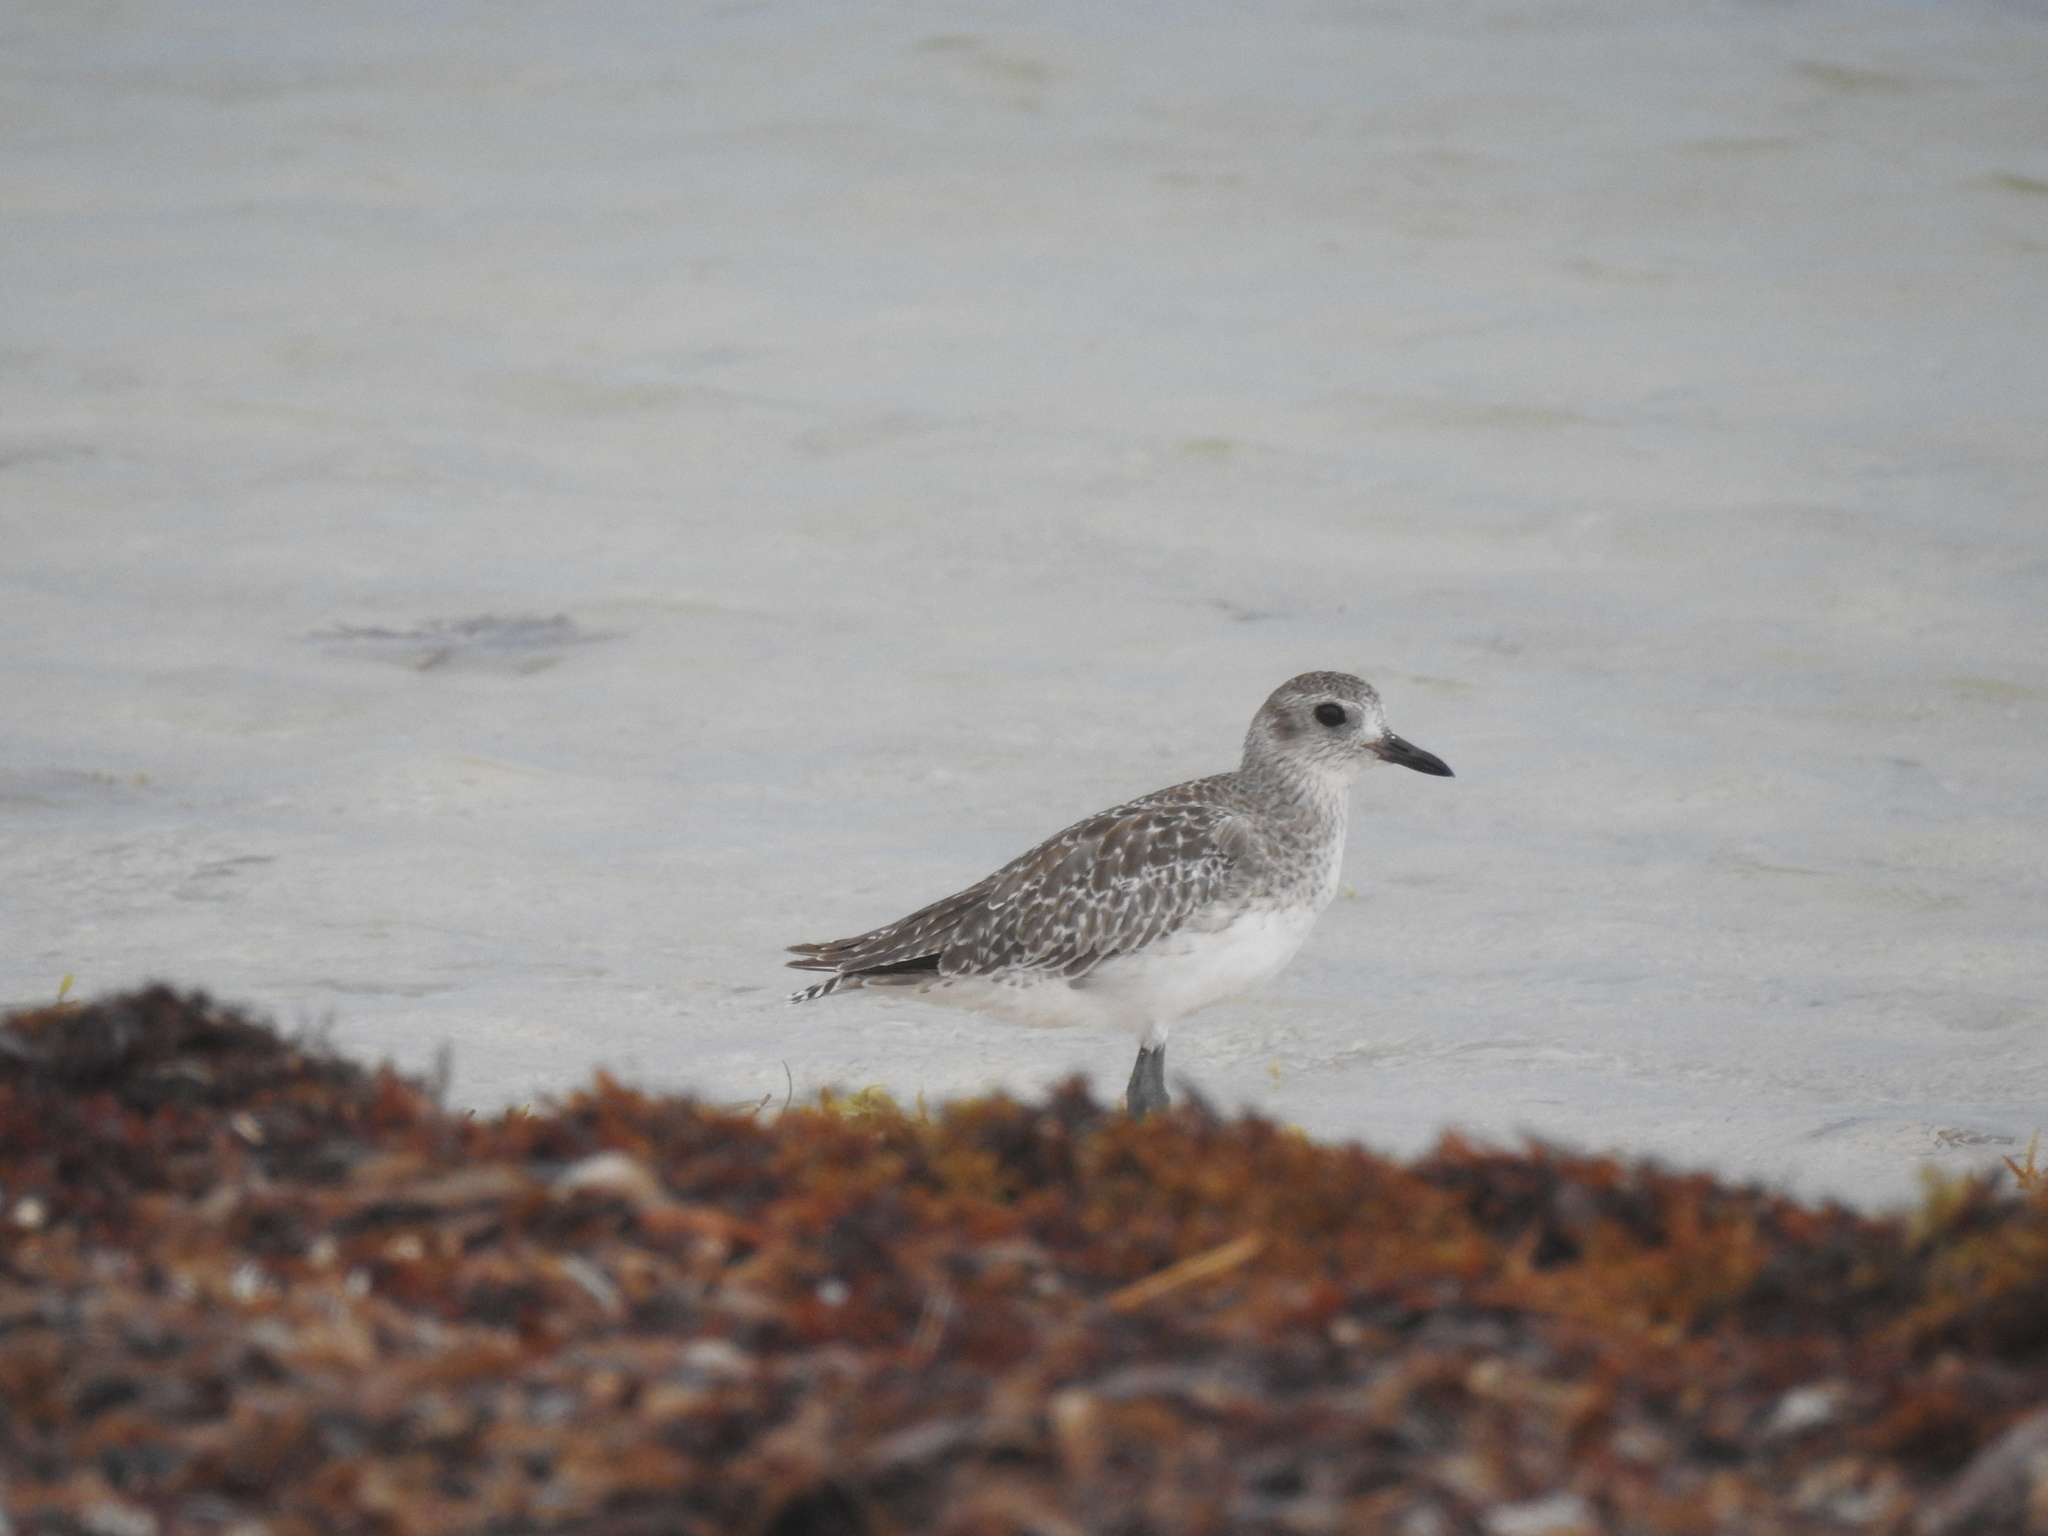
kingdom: Animalia
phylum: Chordata
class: Aves
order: Charadriiformes
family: Charadriidae
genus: Pluvialis
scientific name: Pluvialis squatarola
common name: Grey plover
